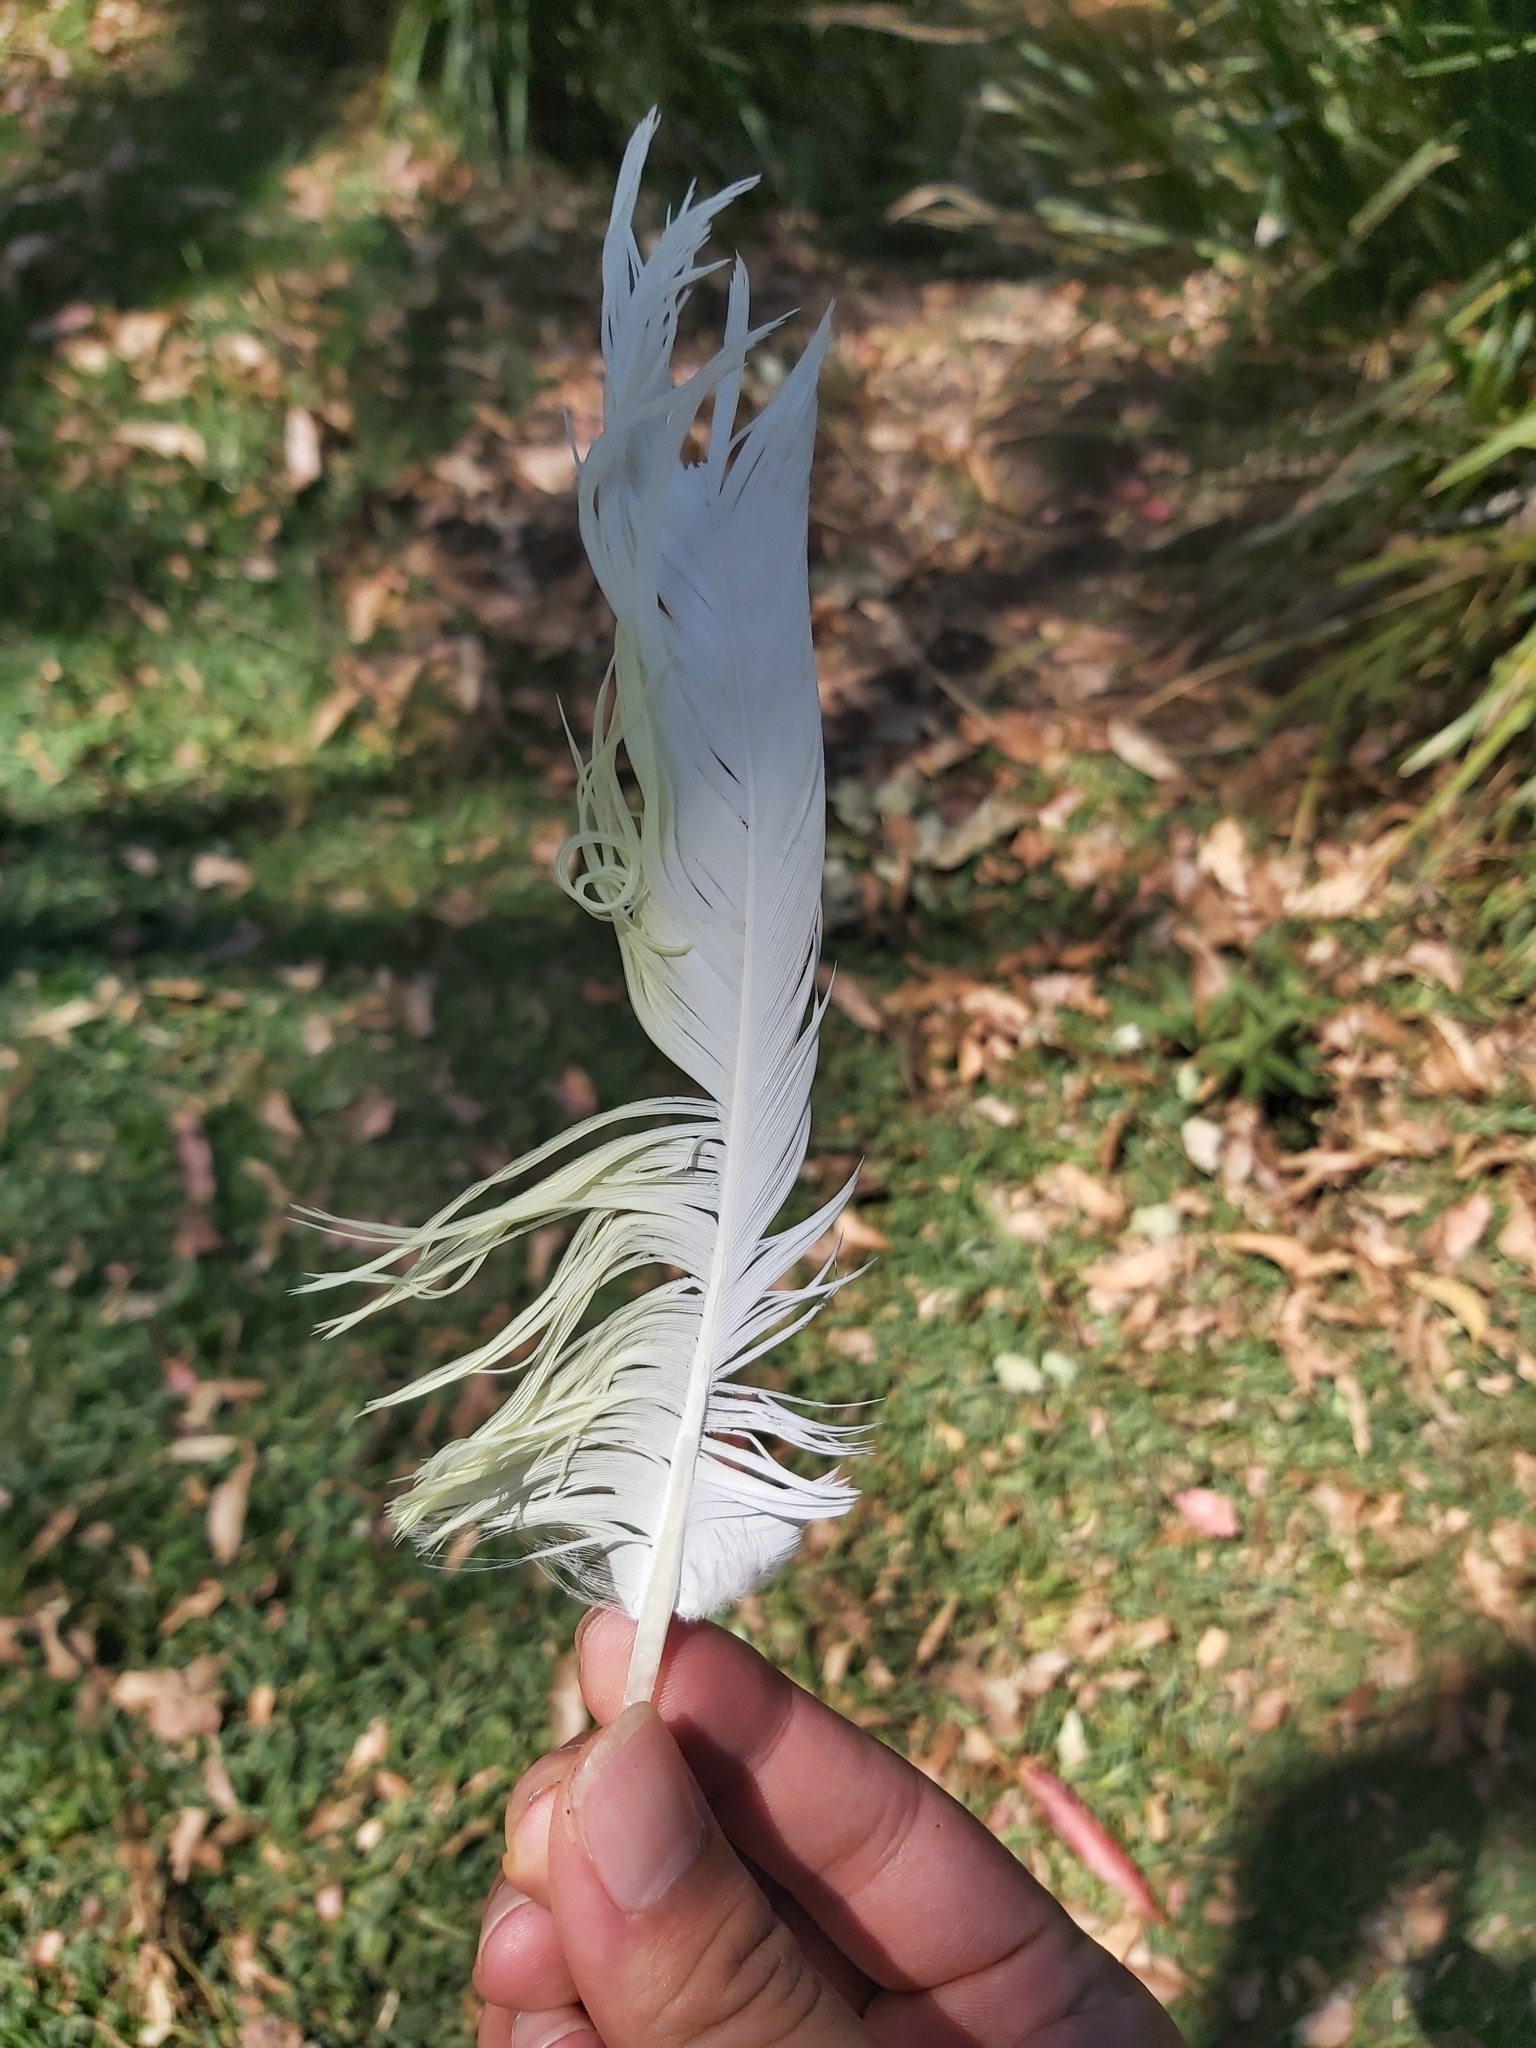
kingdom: Animalia
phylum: Chordata
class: Aves
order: Psittaciformes
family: Psittacidae
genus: Cacatua
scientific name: Cacatua galerita
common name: Sulphur-crested cockatoo
